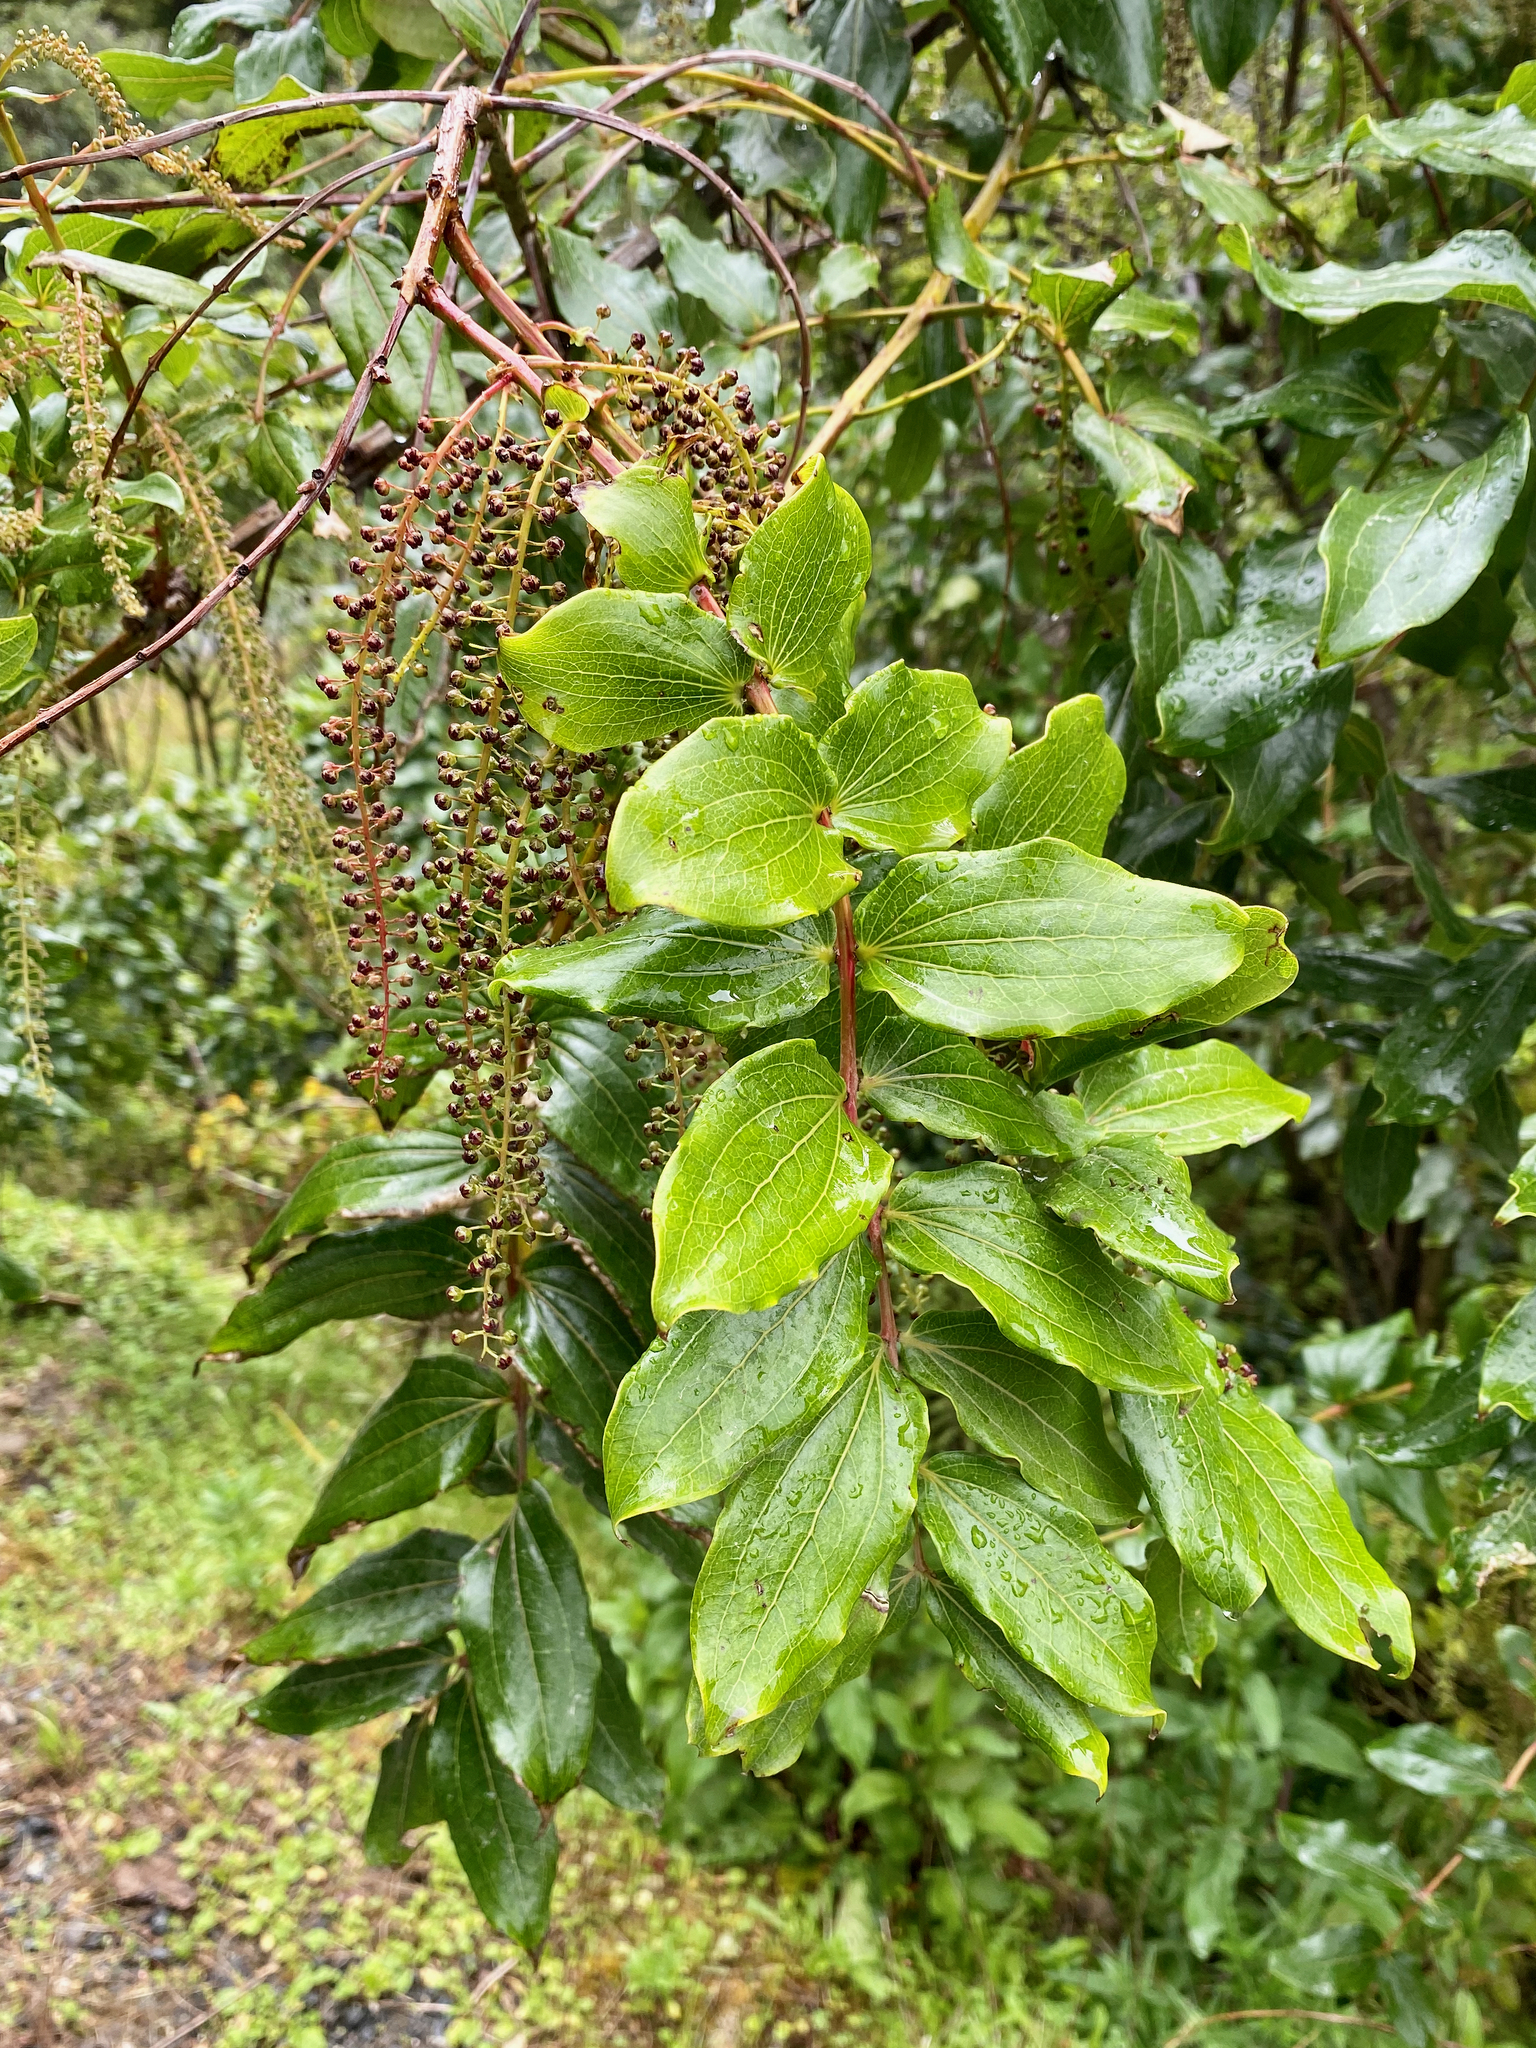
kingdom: Plantae
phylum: Tracheophyta
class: Magnoliopsida
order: Cucurbitales
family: Coriariaceae
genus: Coriaria
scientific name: Coriaria arborea
